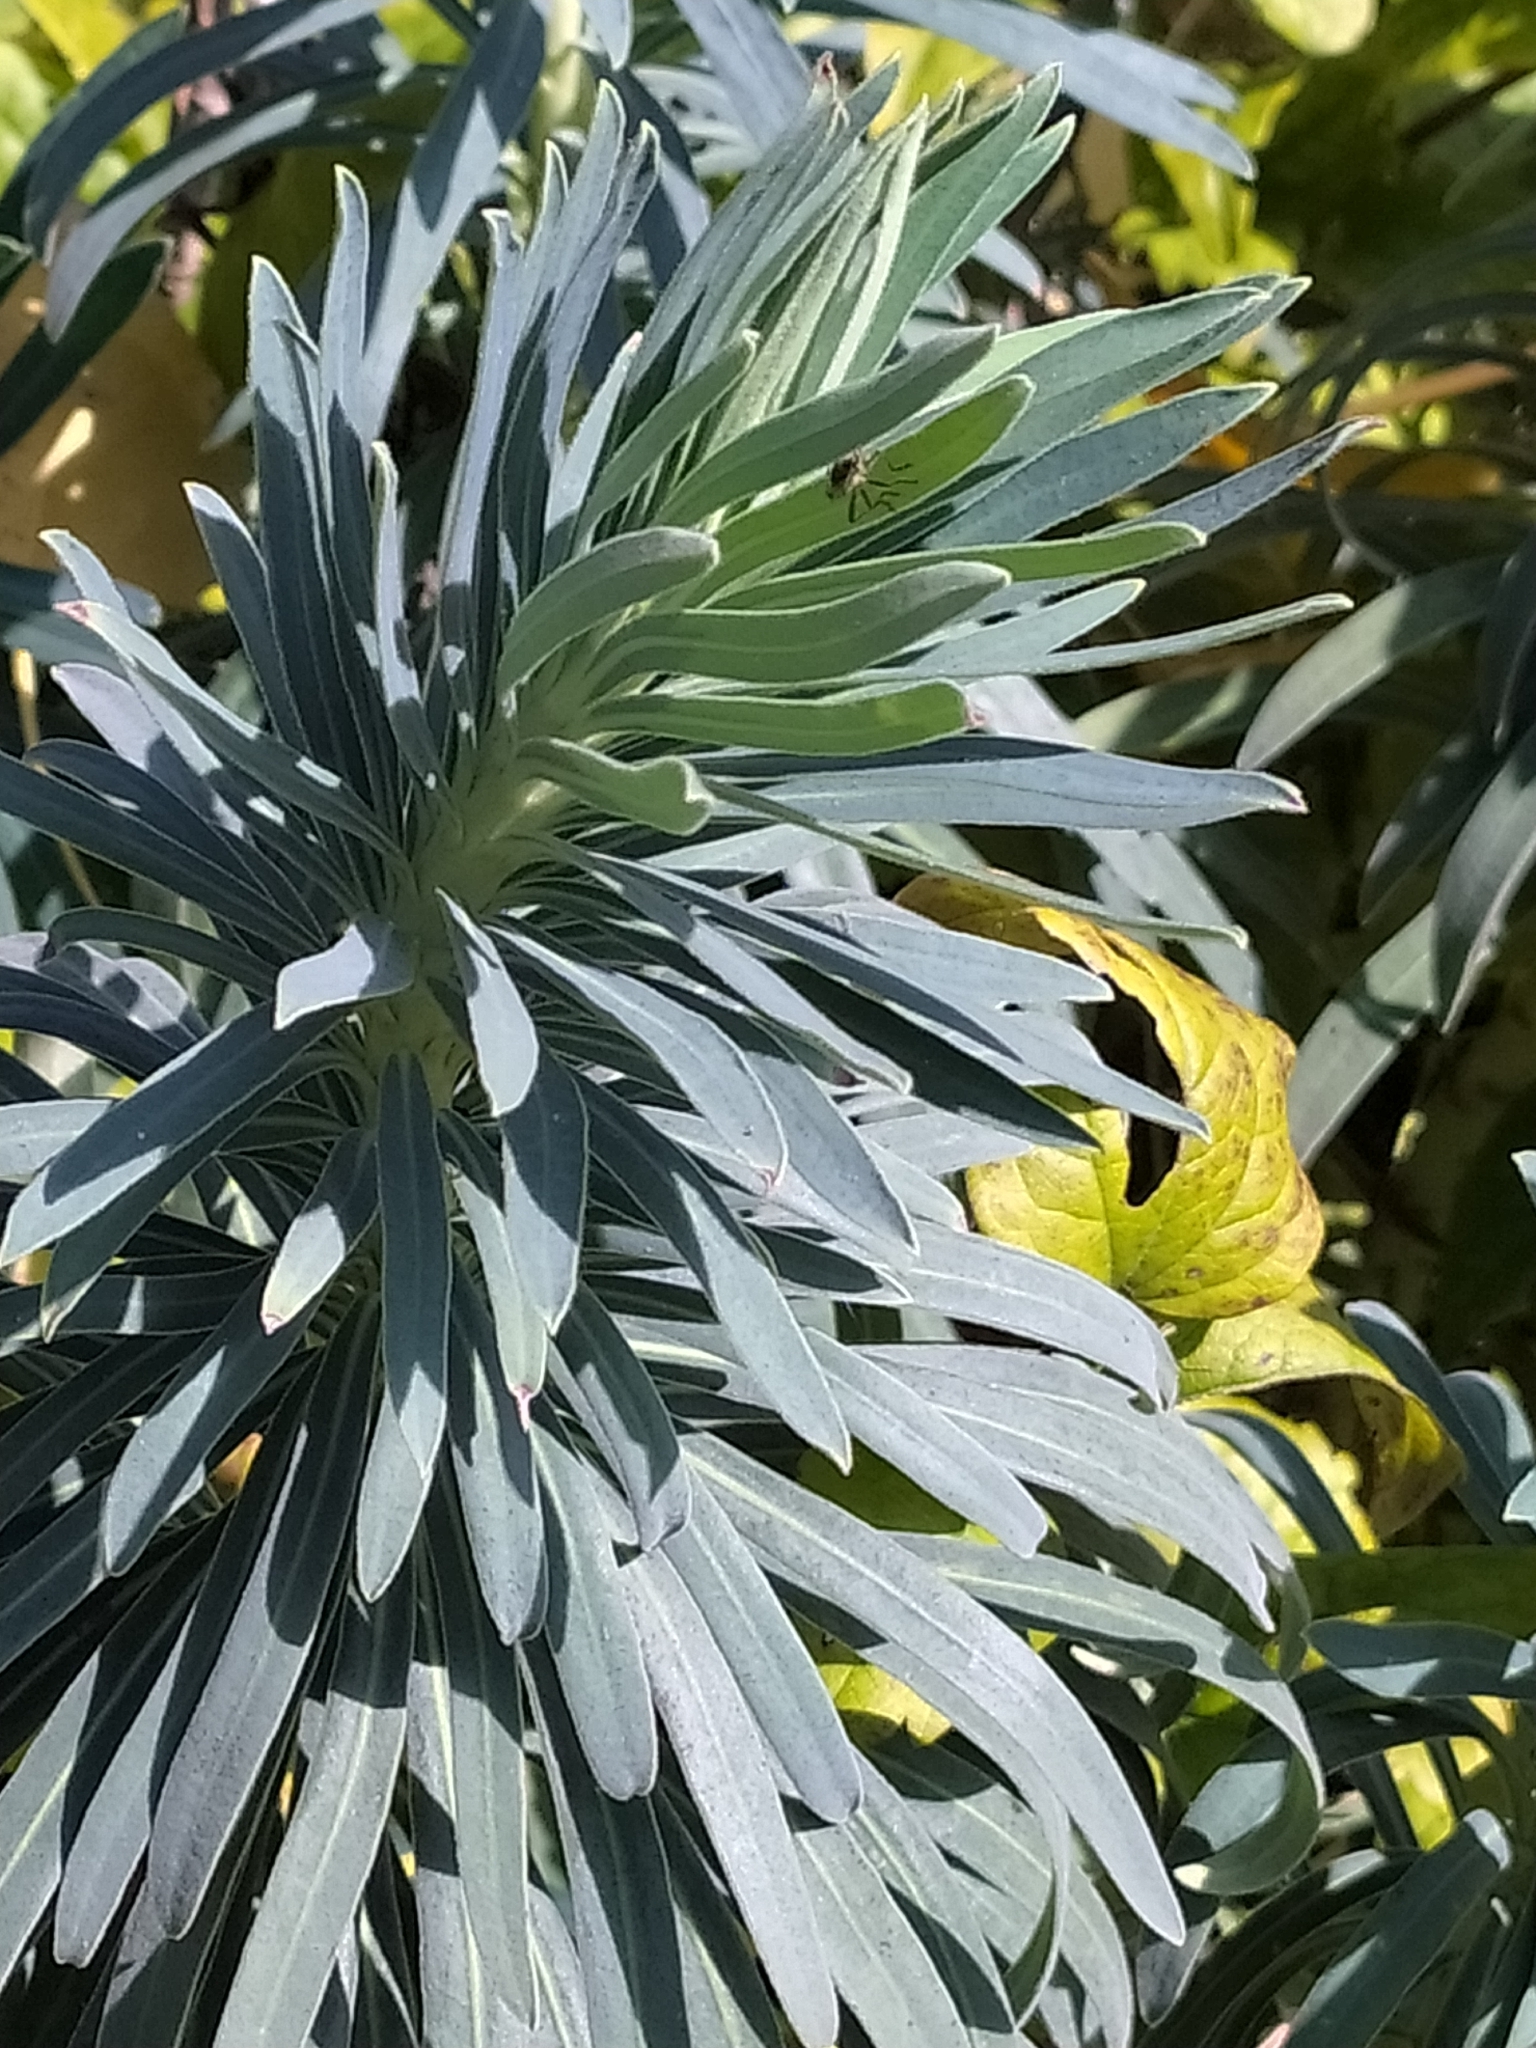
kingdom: Plantae
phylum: Tracheophyta
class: Magnoliopsida
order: Malpighiales
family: Euphorbiaceae
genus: Euphorbia
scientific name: Euphorbia characias
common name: Mediterranean spurge
